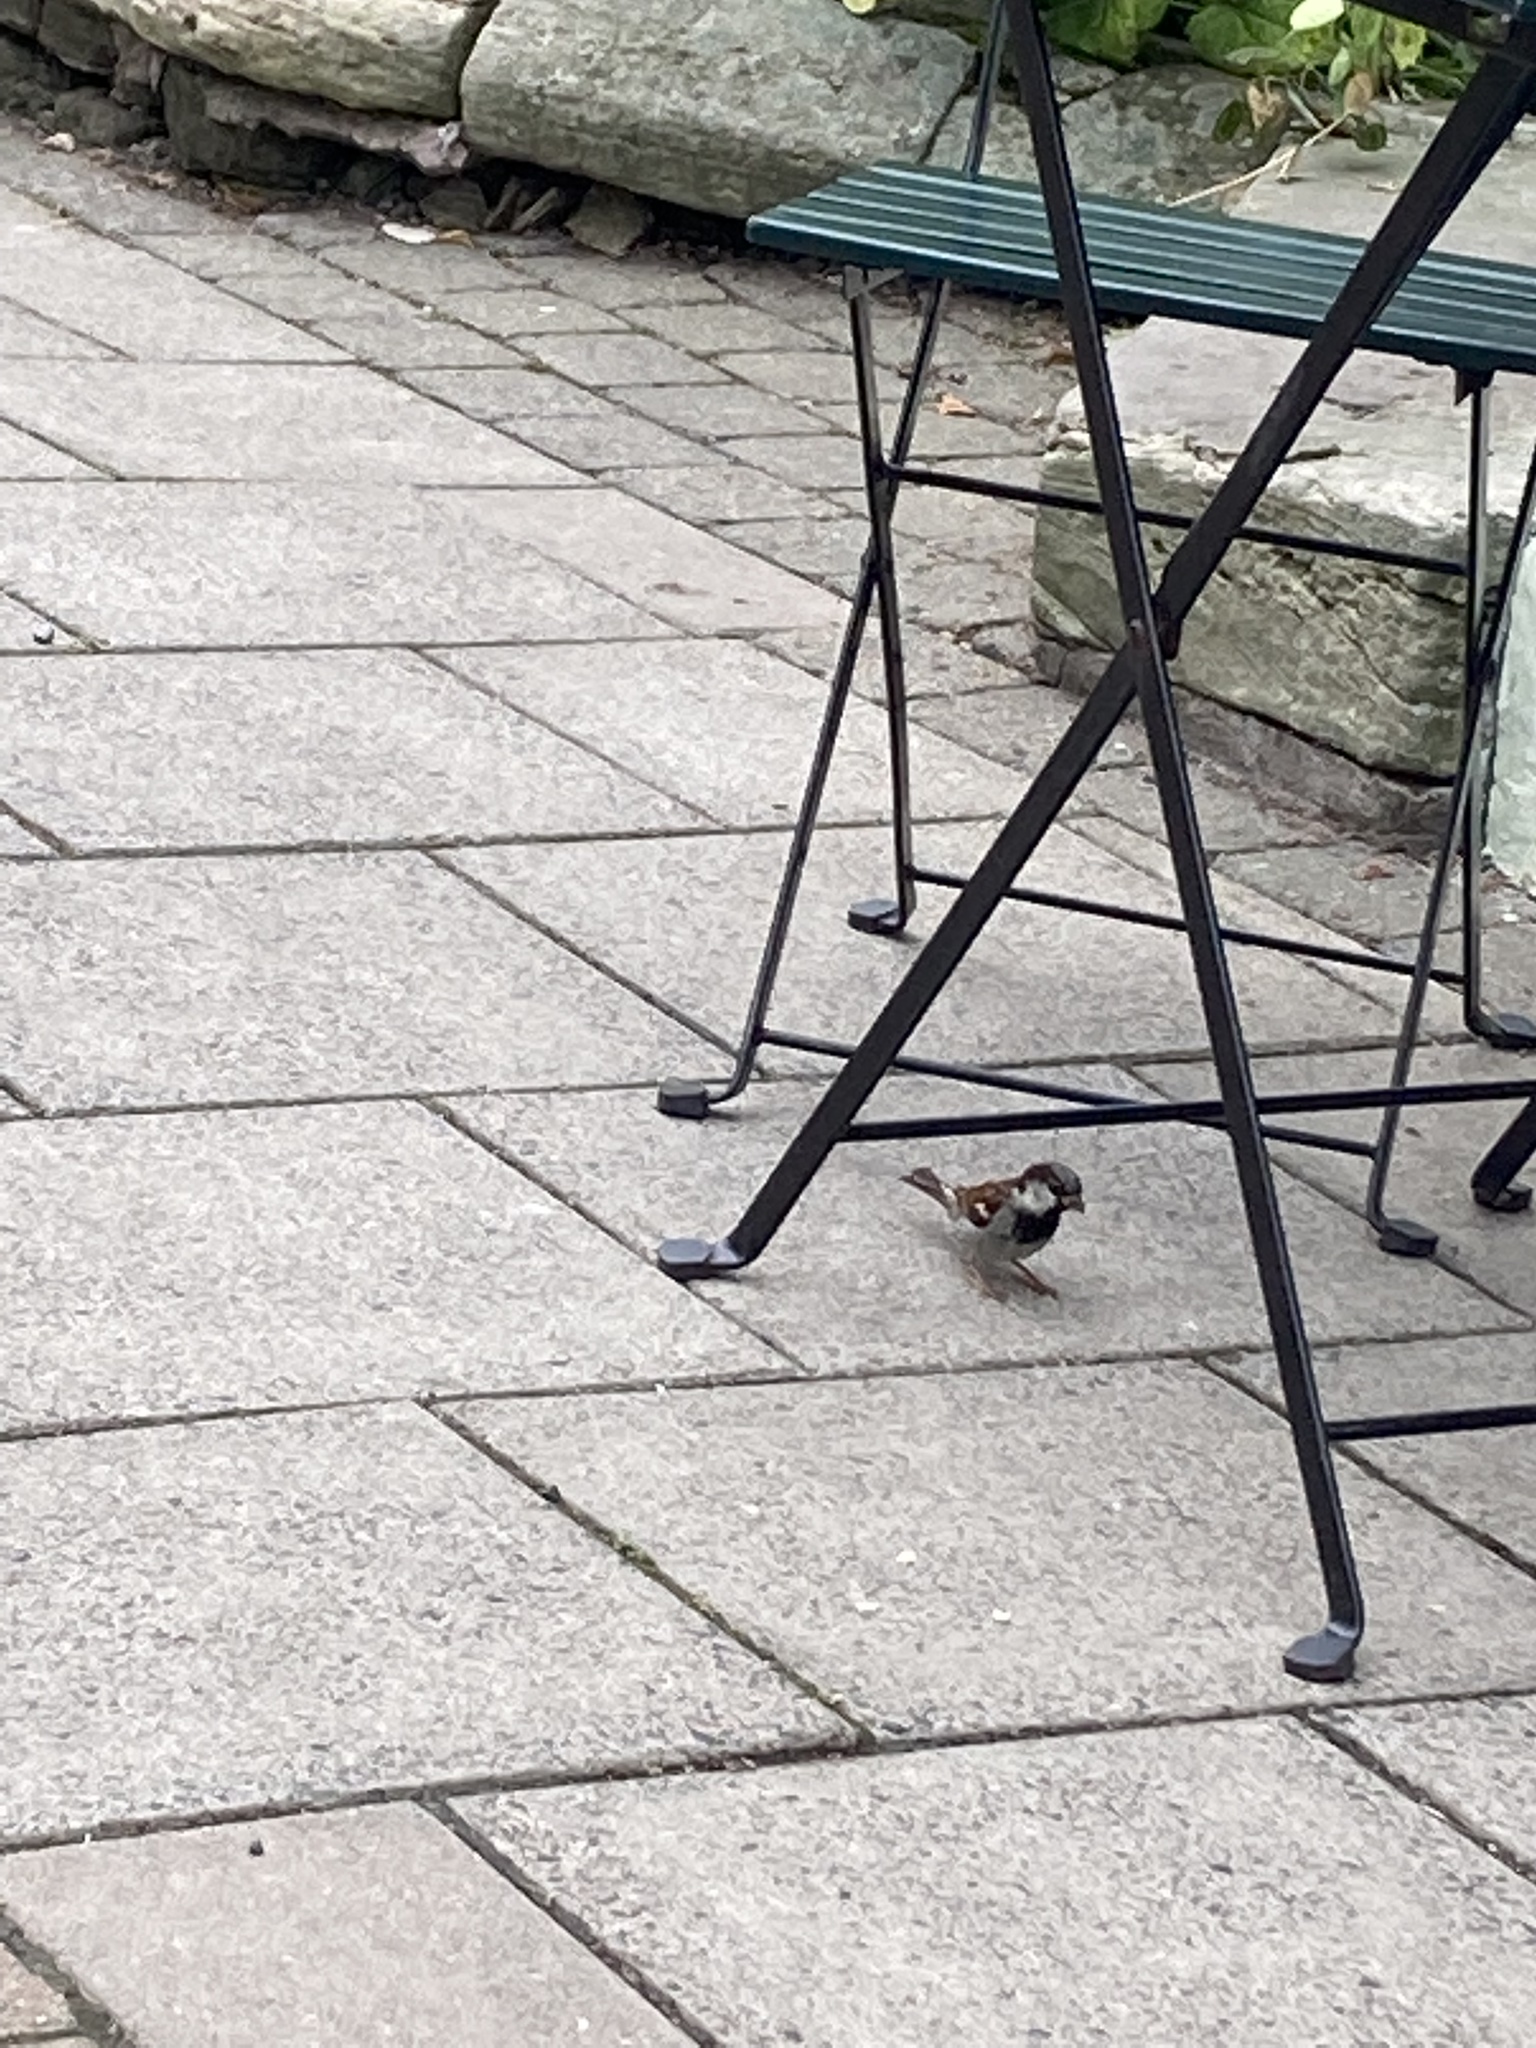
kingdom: Animalia
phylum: Chordata
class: Aves
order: Passeriformes
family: Passeridae
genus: Passer
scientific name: Passer domesticus
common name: House sparrow
